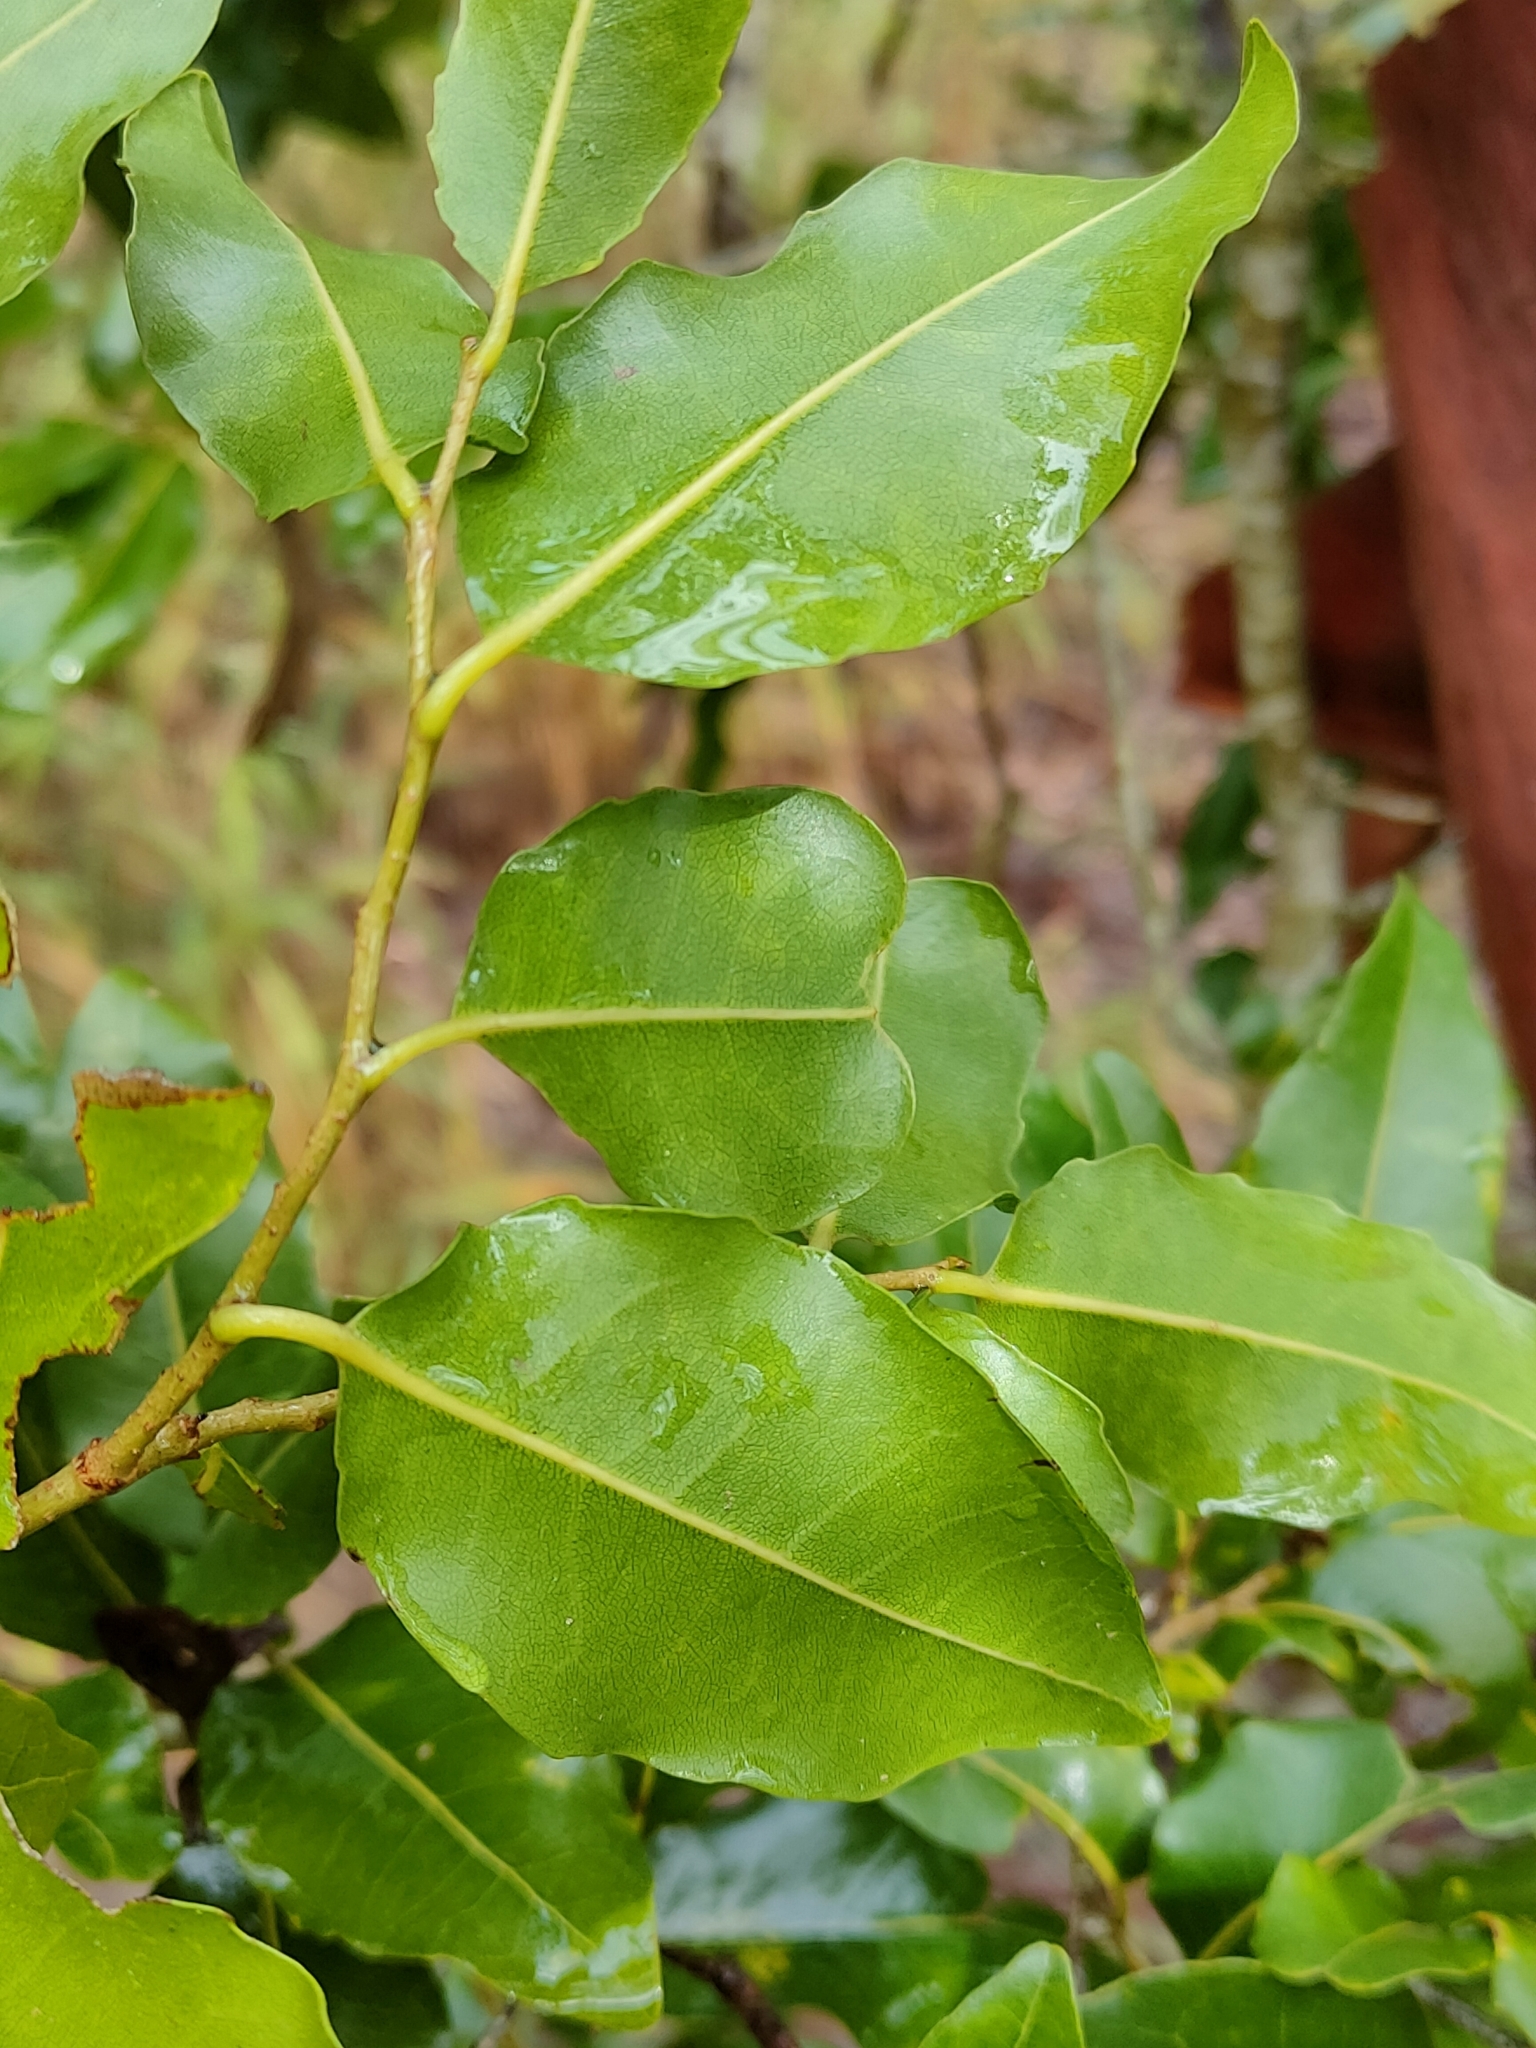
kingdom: Plantae
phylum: Tracheophyta
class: Magnoliopsida
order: Malpighiales
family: Putranjivaceae
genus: Drypetes
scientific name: Drypetes deplanchei
